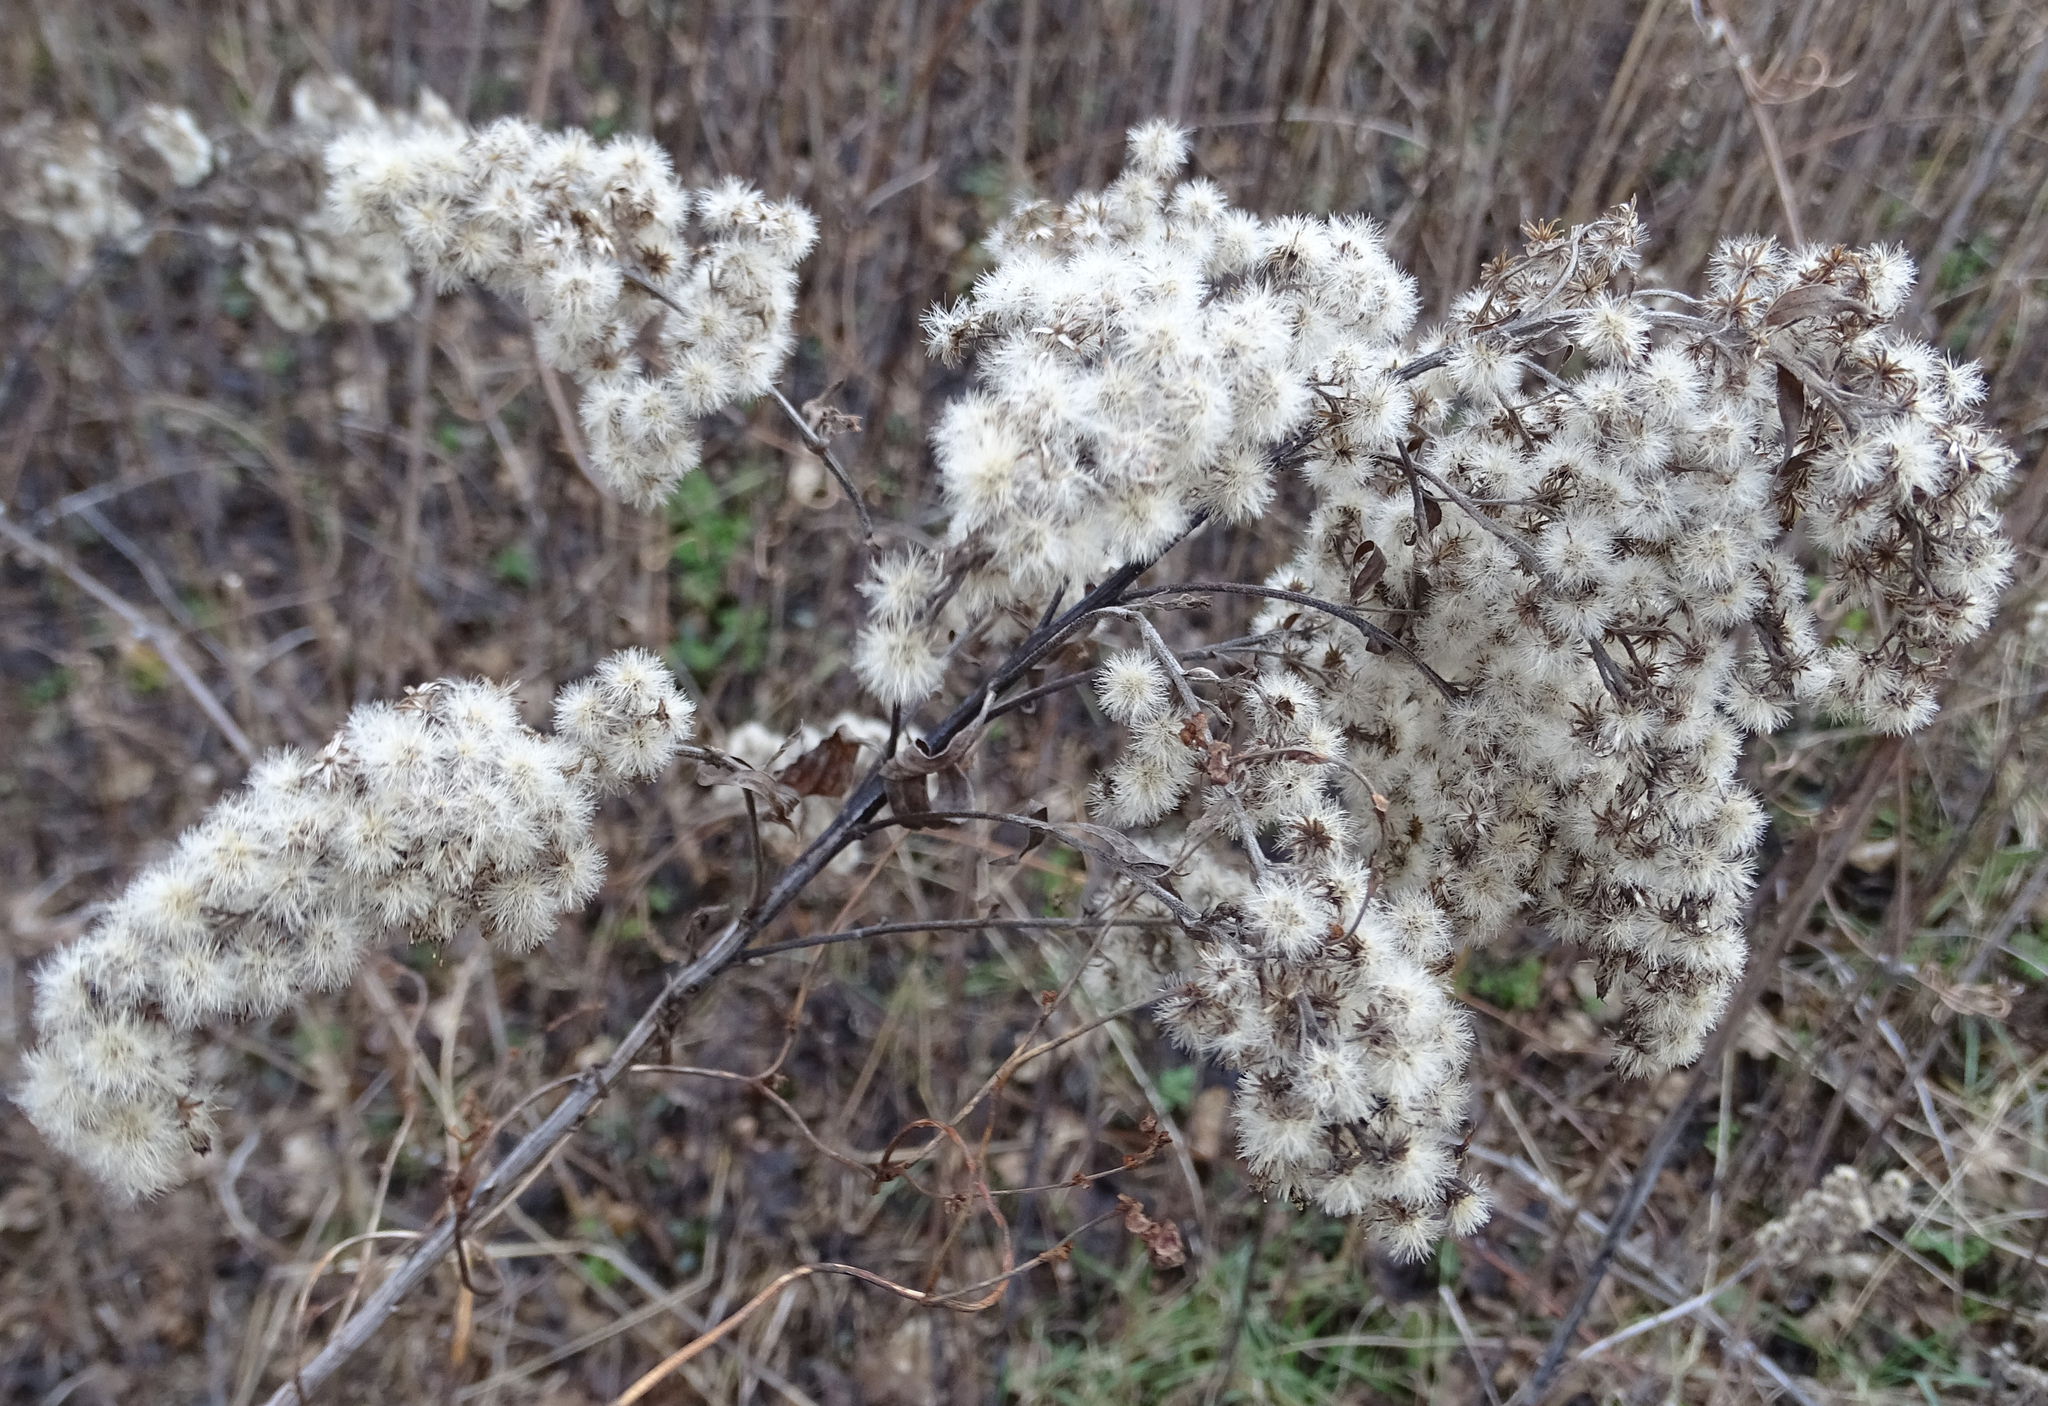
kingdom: Plantae
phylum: Tracheophyta
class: Magnoliopsida
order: Asterales
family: Asteraceae
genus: Solidago
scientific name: Solidago gigantea
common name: Giant goldenrod
